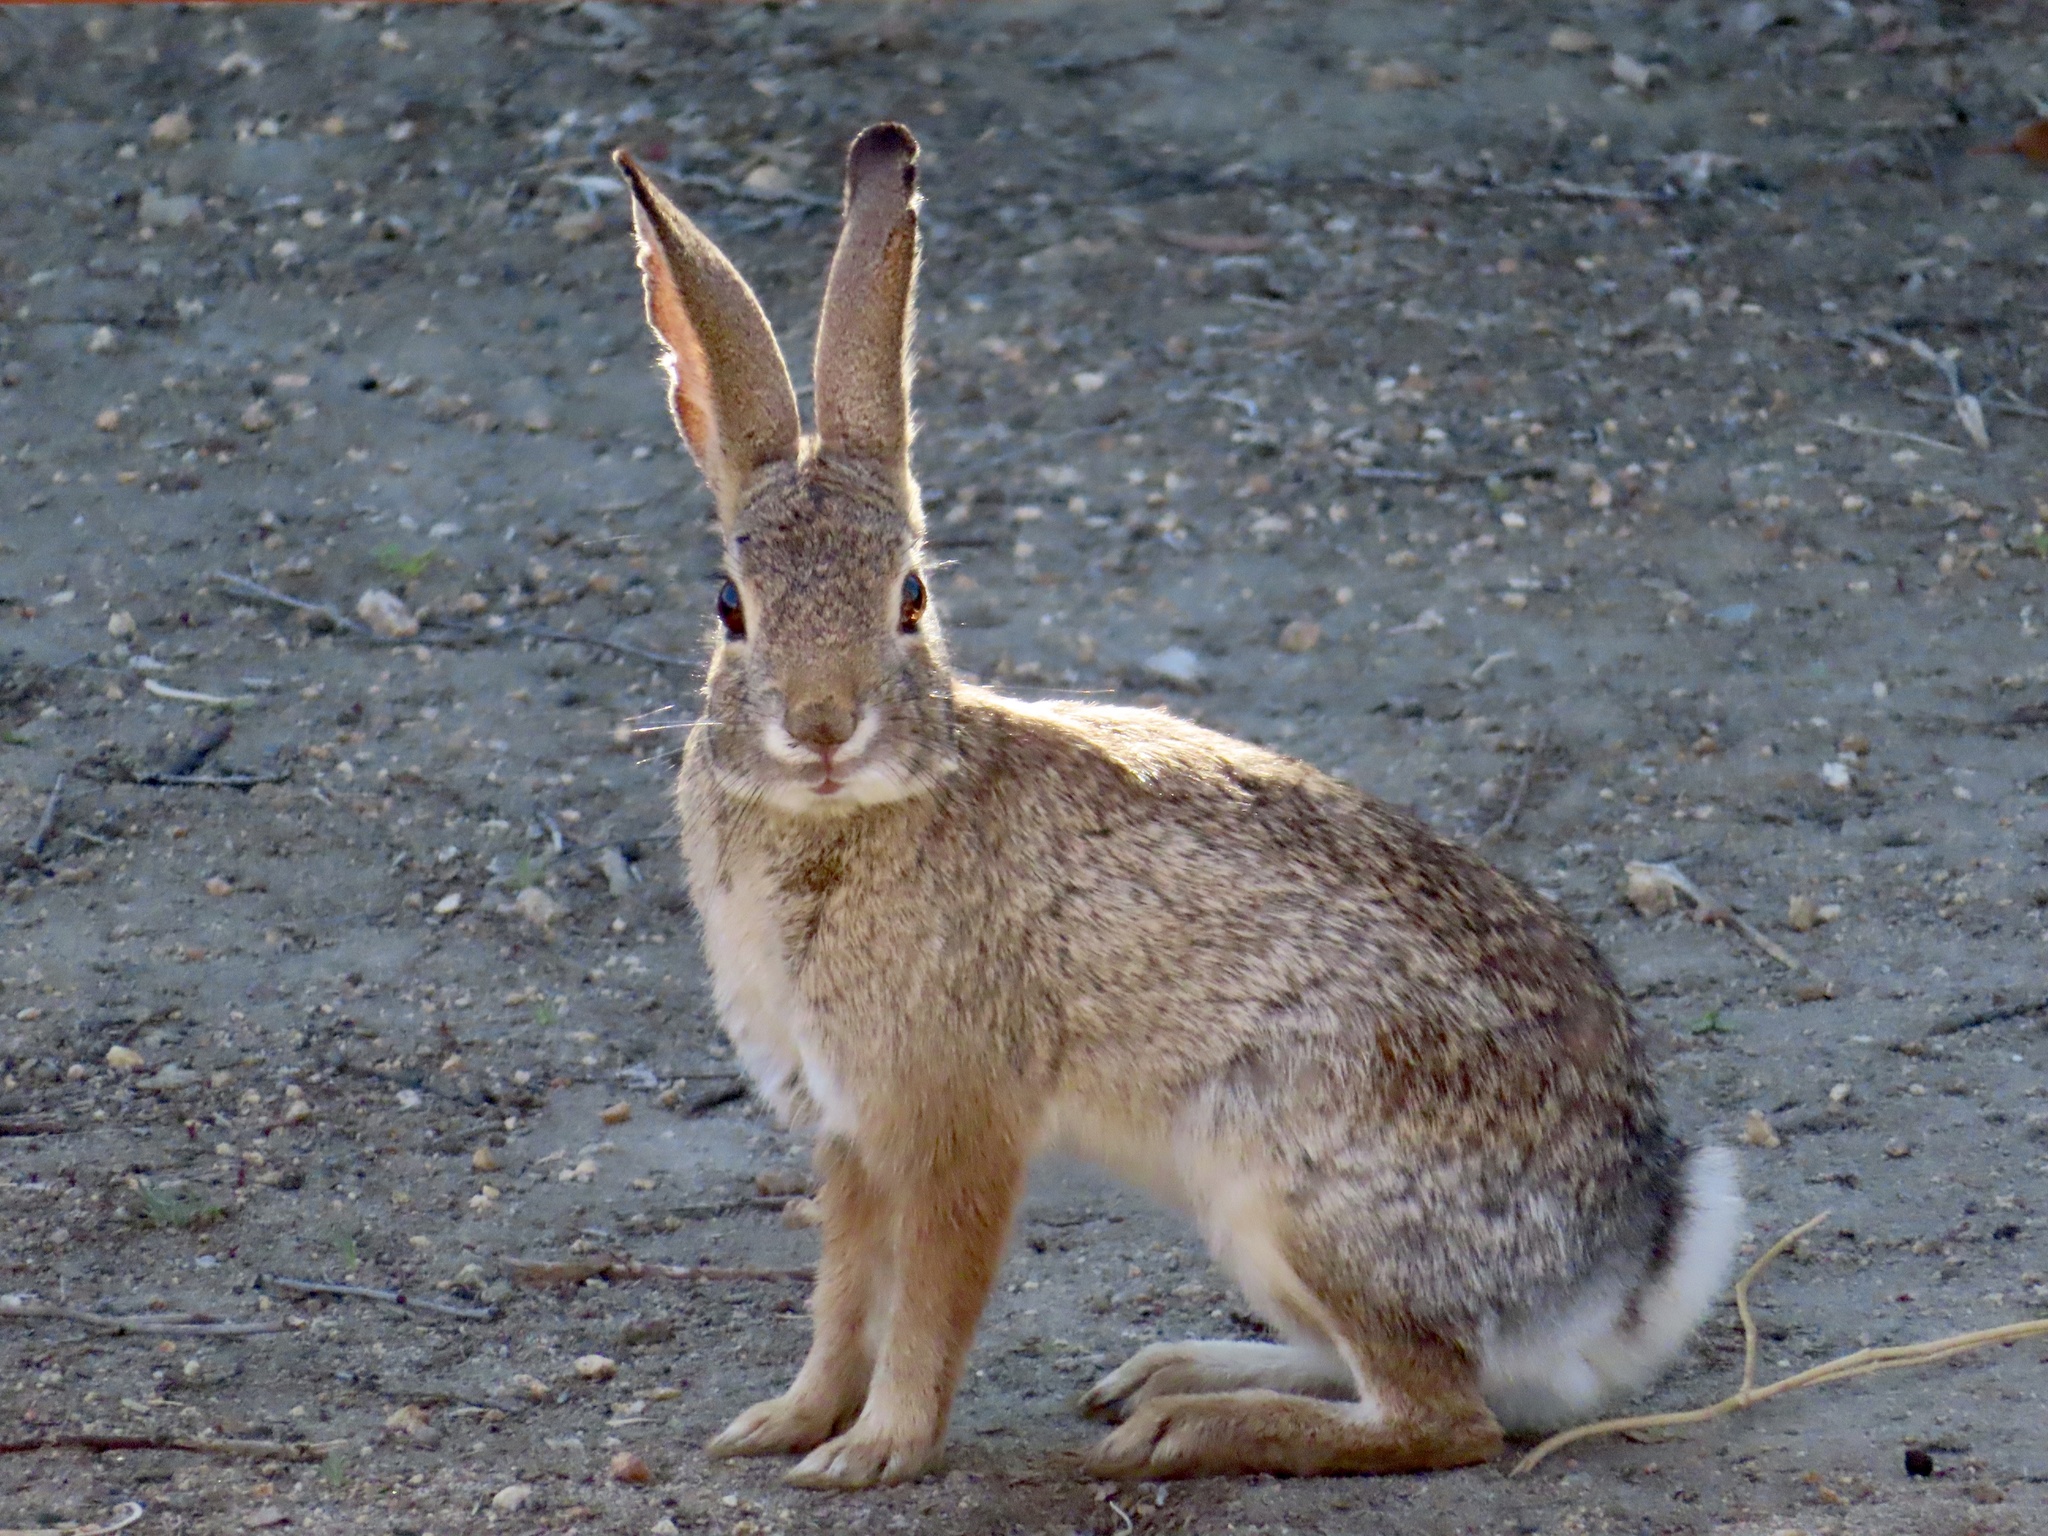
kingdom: Animalia
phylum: Chordata
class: Mammalia
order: Lagomorpha
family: Leporidae
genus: Sylvilagus
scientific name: Sylvilagus audubonii
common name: Desert cottontail
